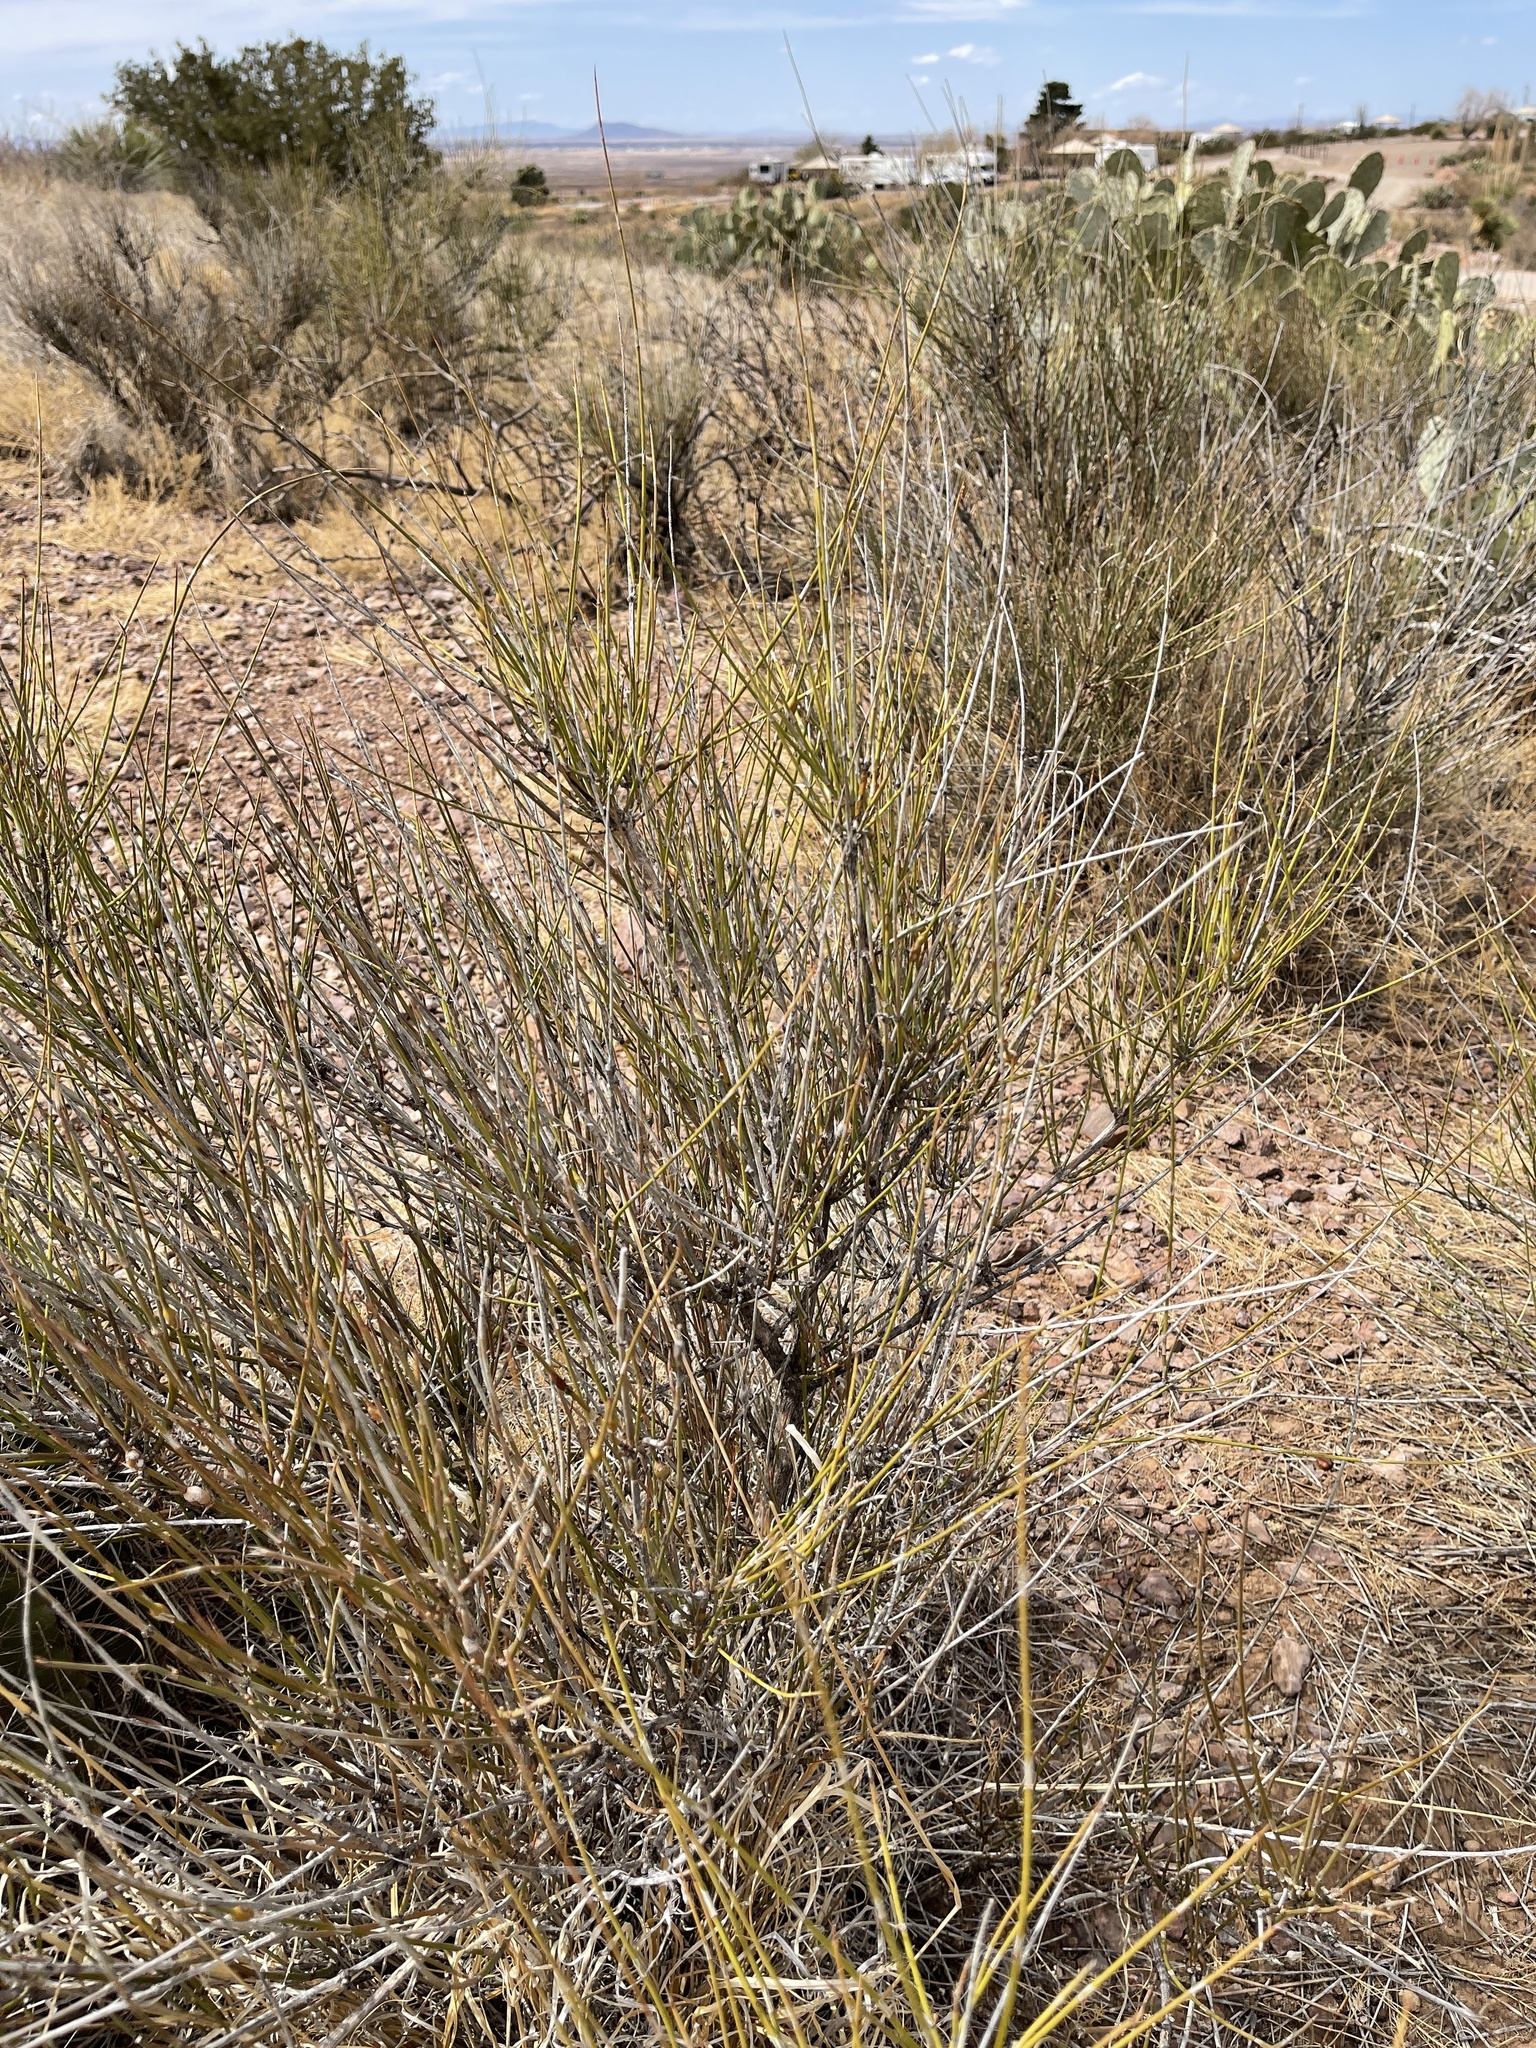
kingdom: Plantae
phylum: Tracheophyta
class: Gnetopsida
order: Ephedrales
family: Ephedraceae
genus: Ephedra
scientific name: Ephedra trifurca
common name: Mexican-tea
